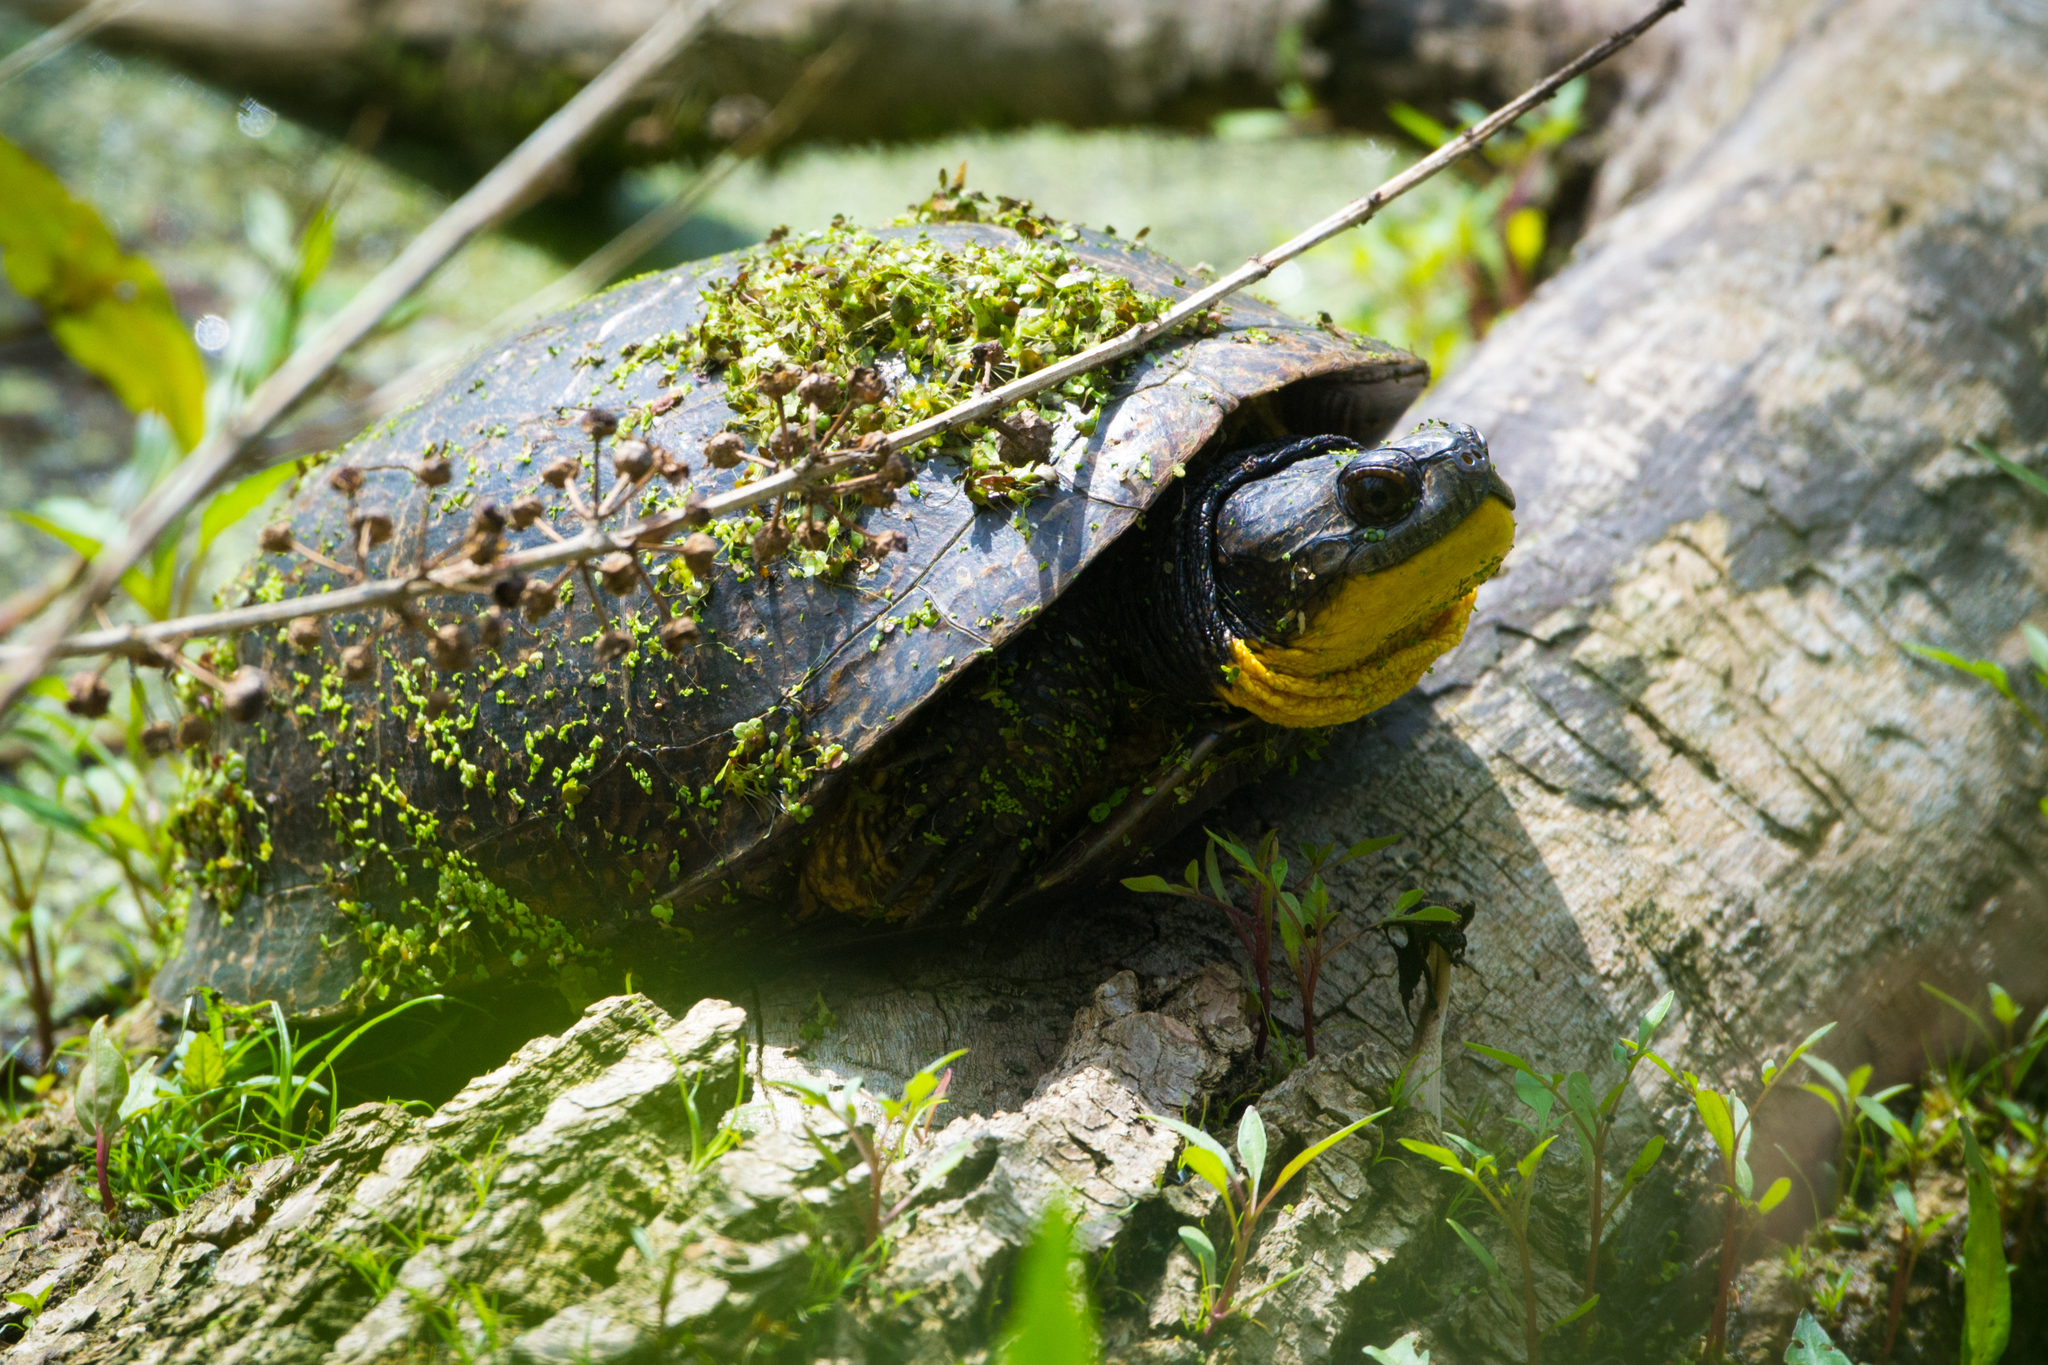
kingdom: Animalia
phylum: Chordata
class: Testudines
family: Emydidae
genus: Emys
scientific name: Emys blandingii
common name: Blanding's turtle
